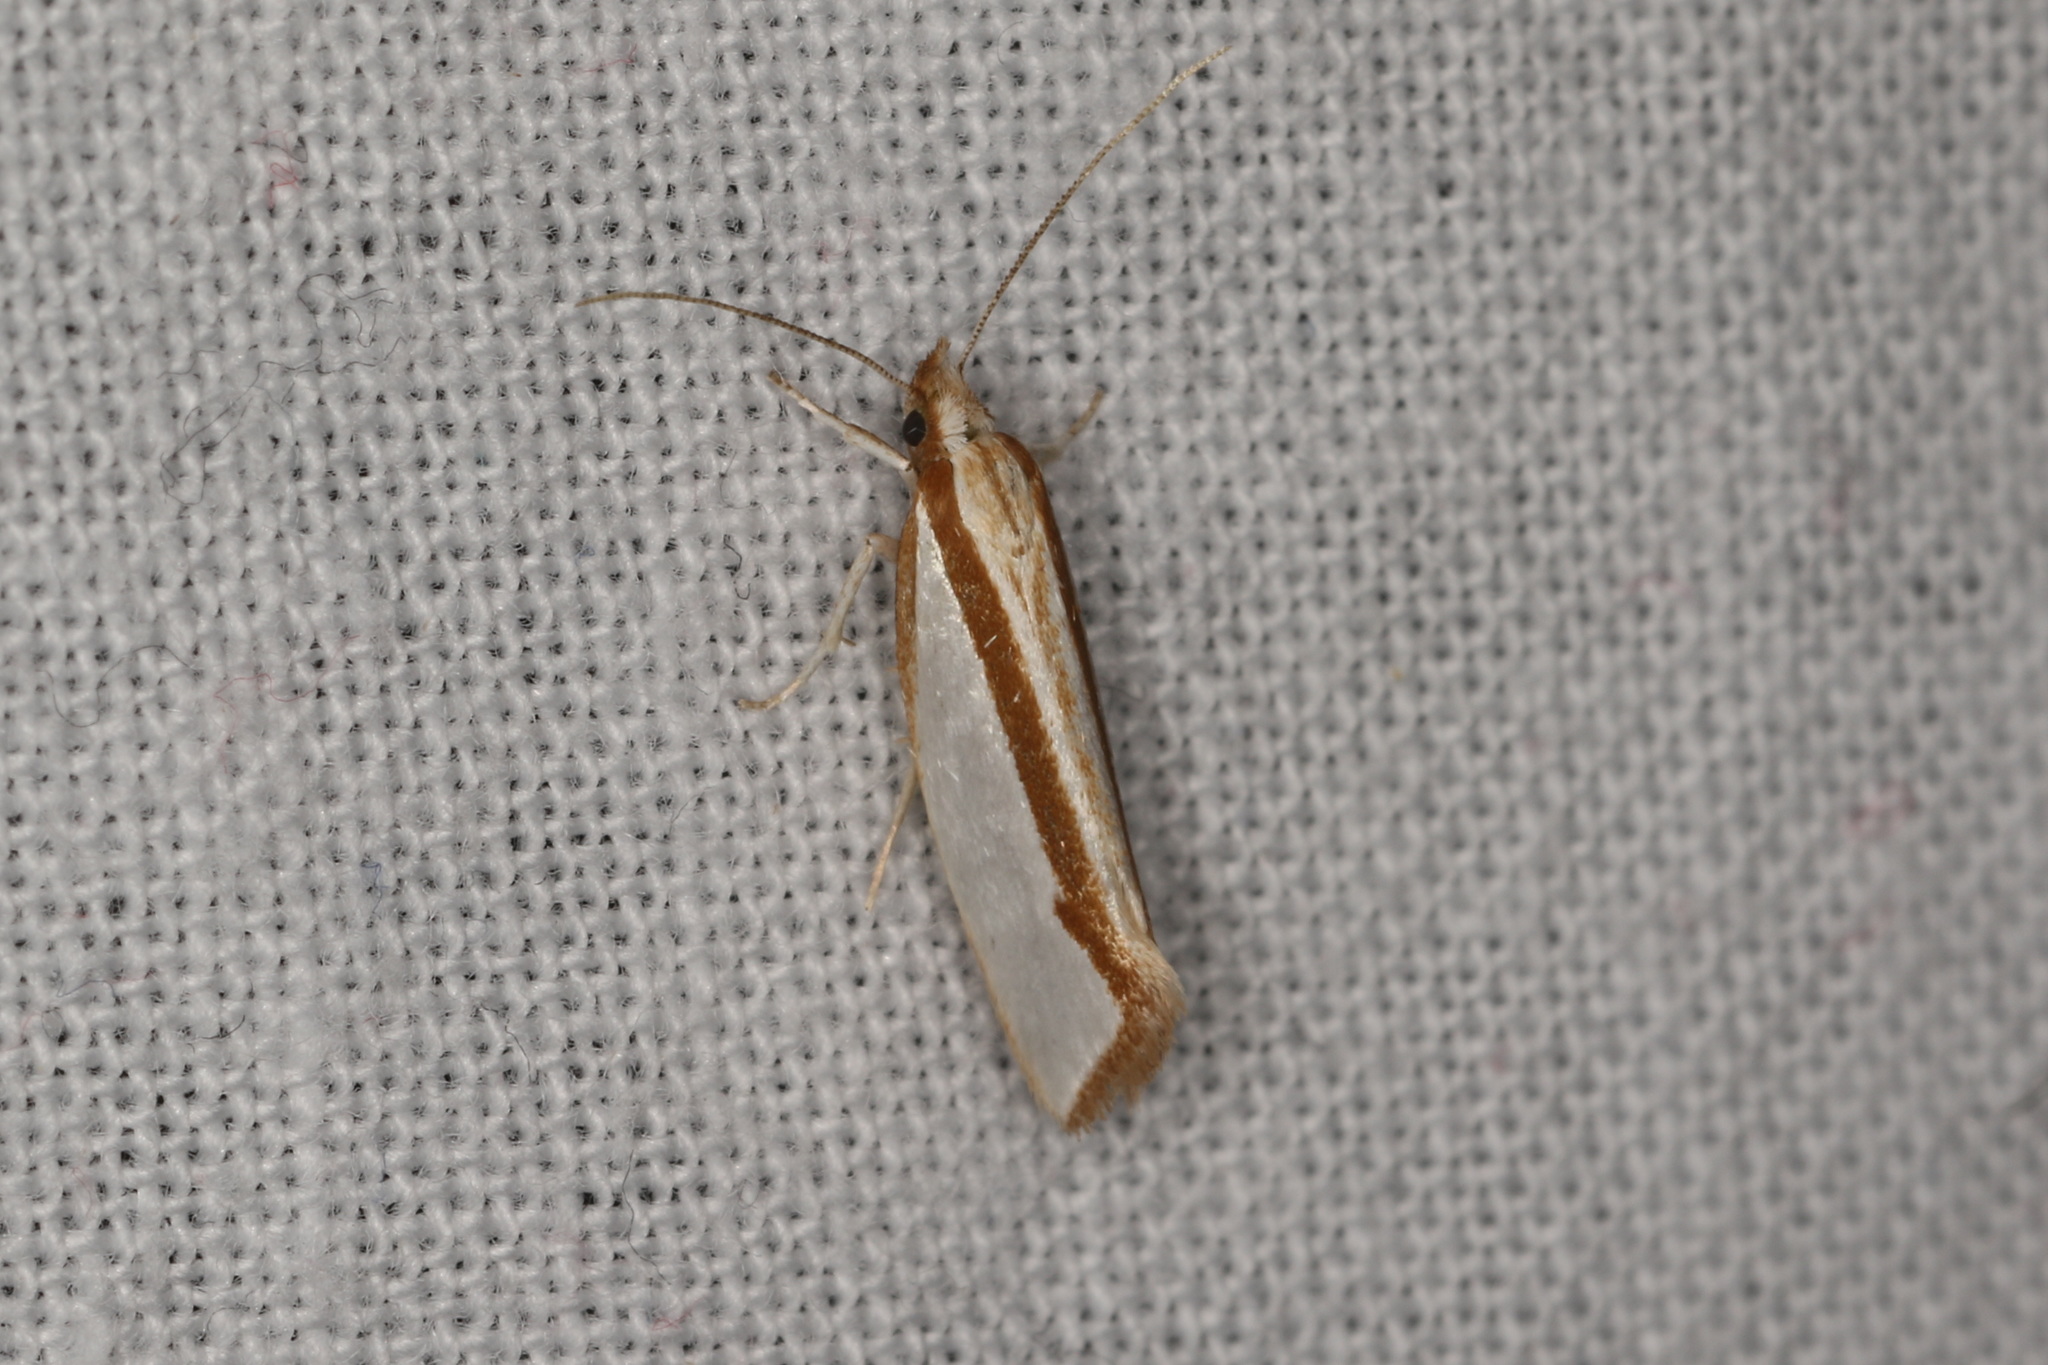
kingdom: Animalia
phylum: Arthropoda
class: Insecta
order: Lepidoptera
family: Depressariidae
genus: Thudaca
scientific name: Thudaca circumdatella
